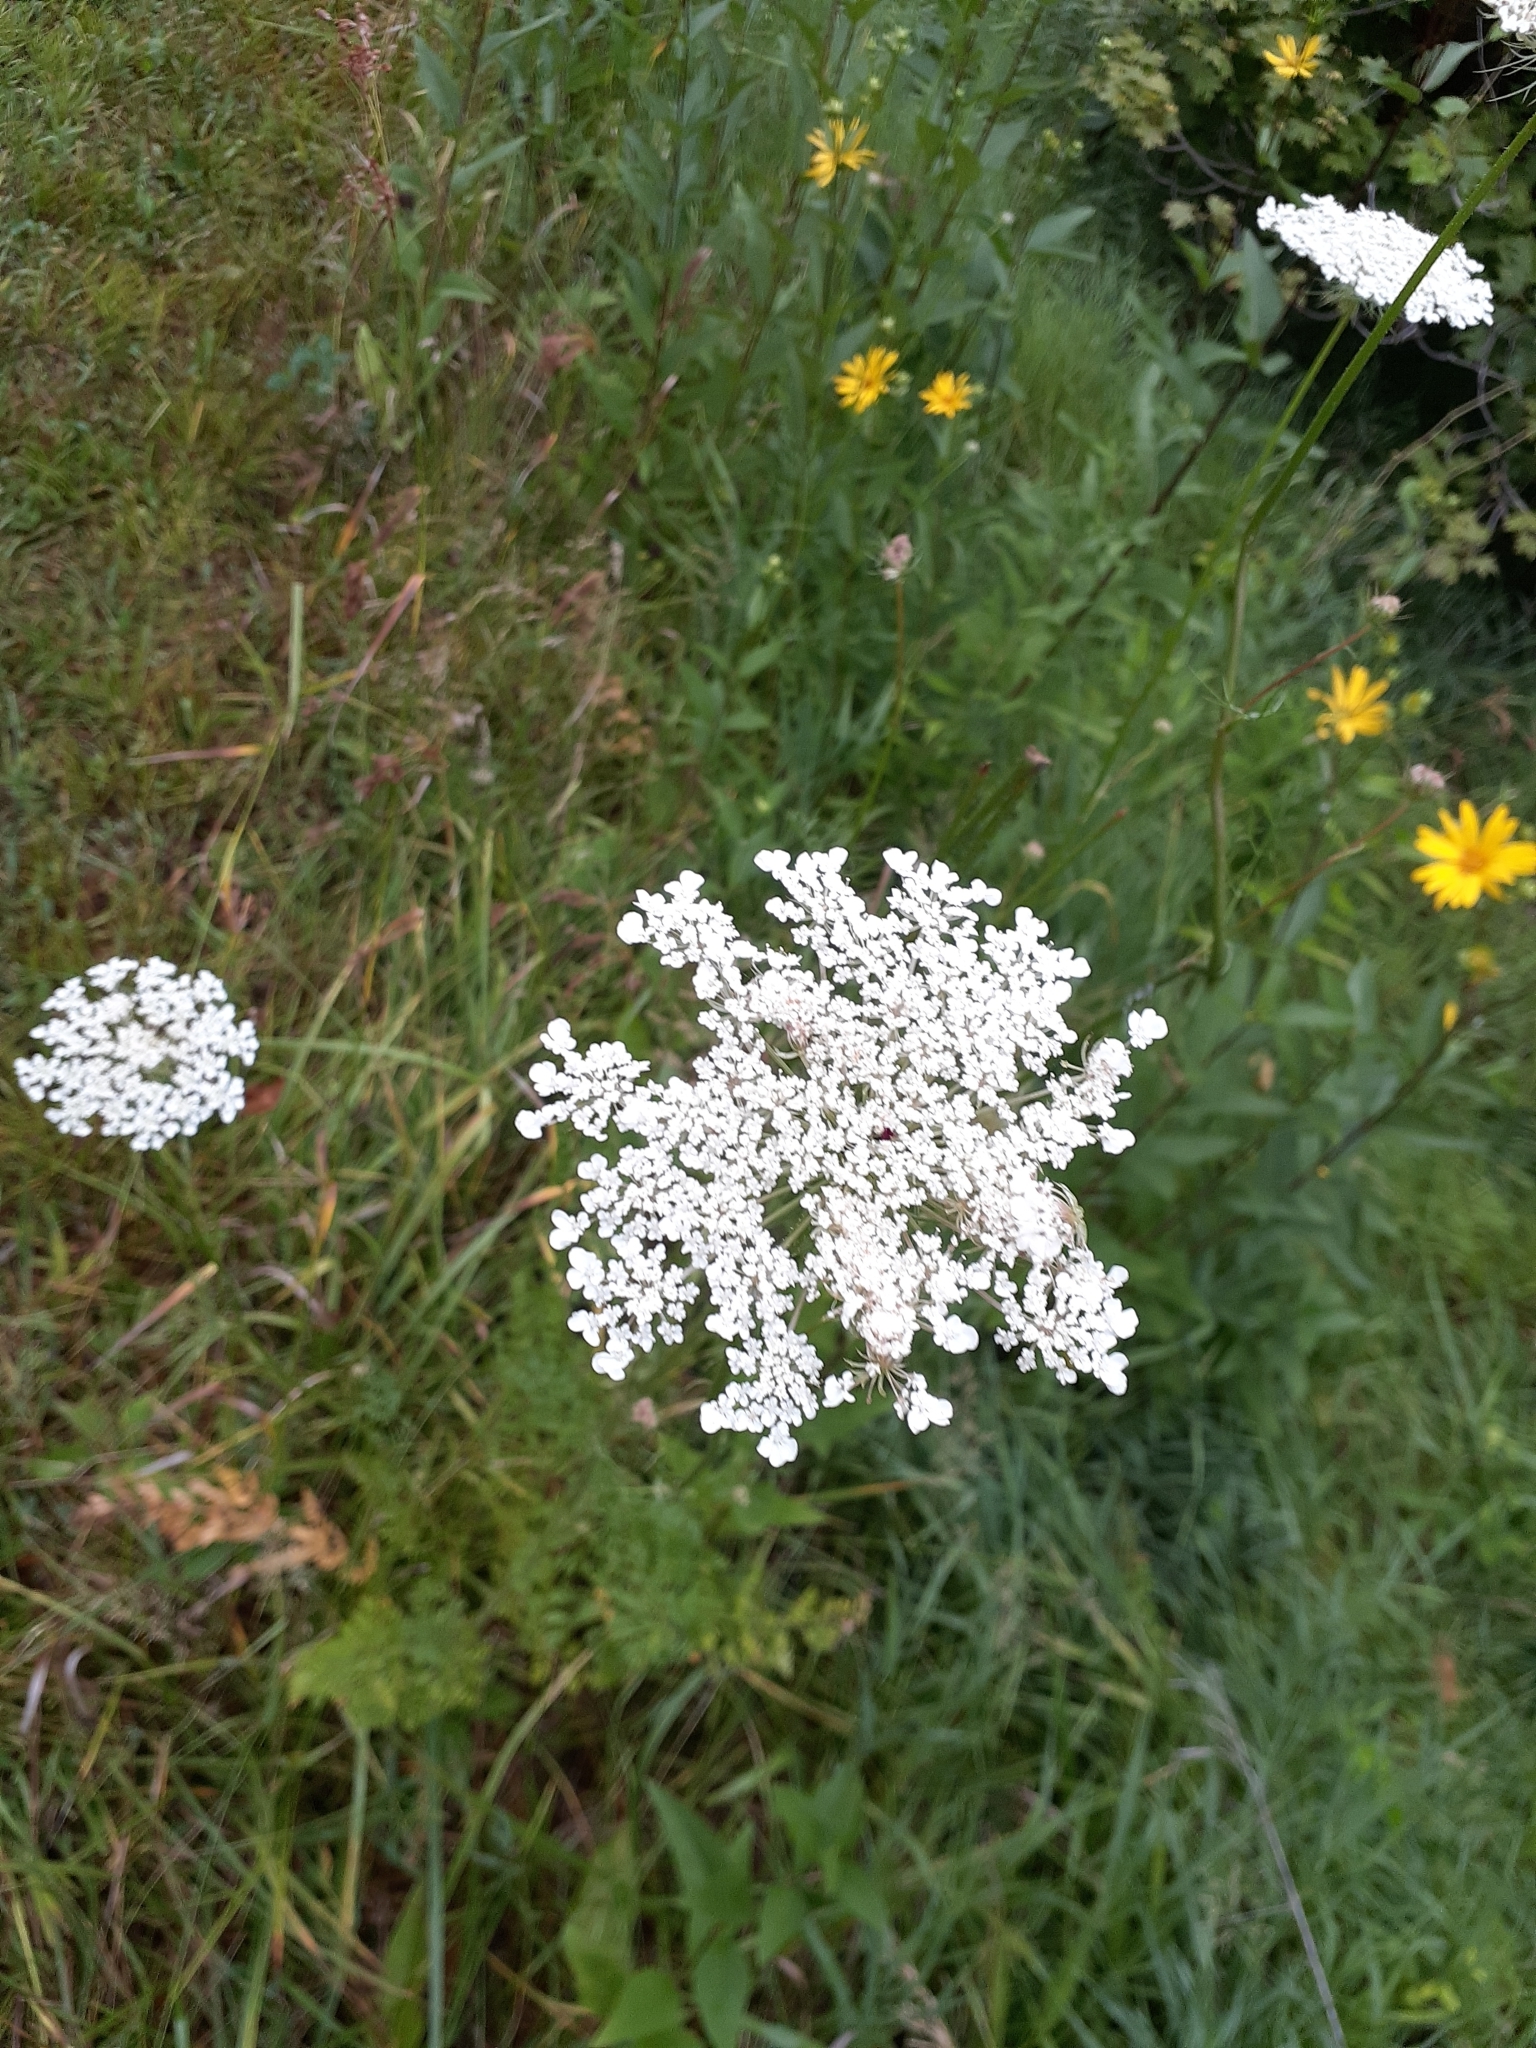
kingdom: Plantae
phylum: Tracheophyta
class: Magnoliopsida
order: Apiales
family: Apiaceae
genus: Daucus
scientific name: Daucus carota
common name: Wild carrot
